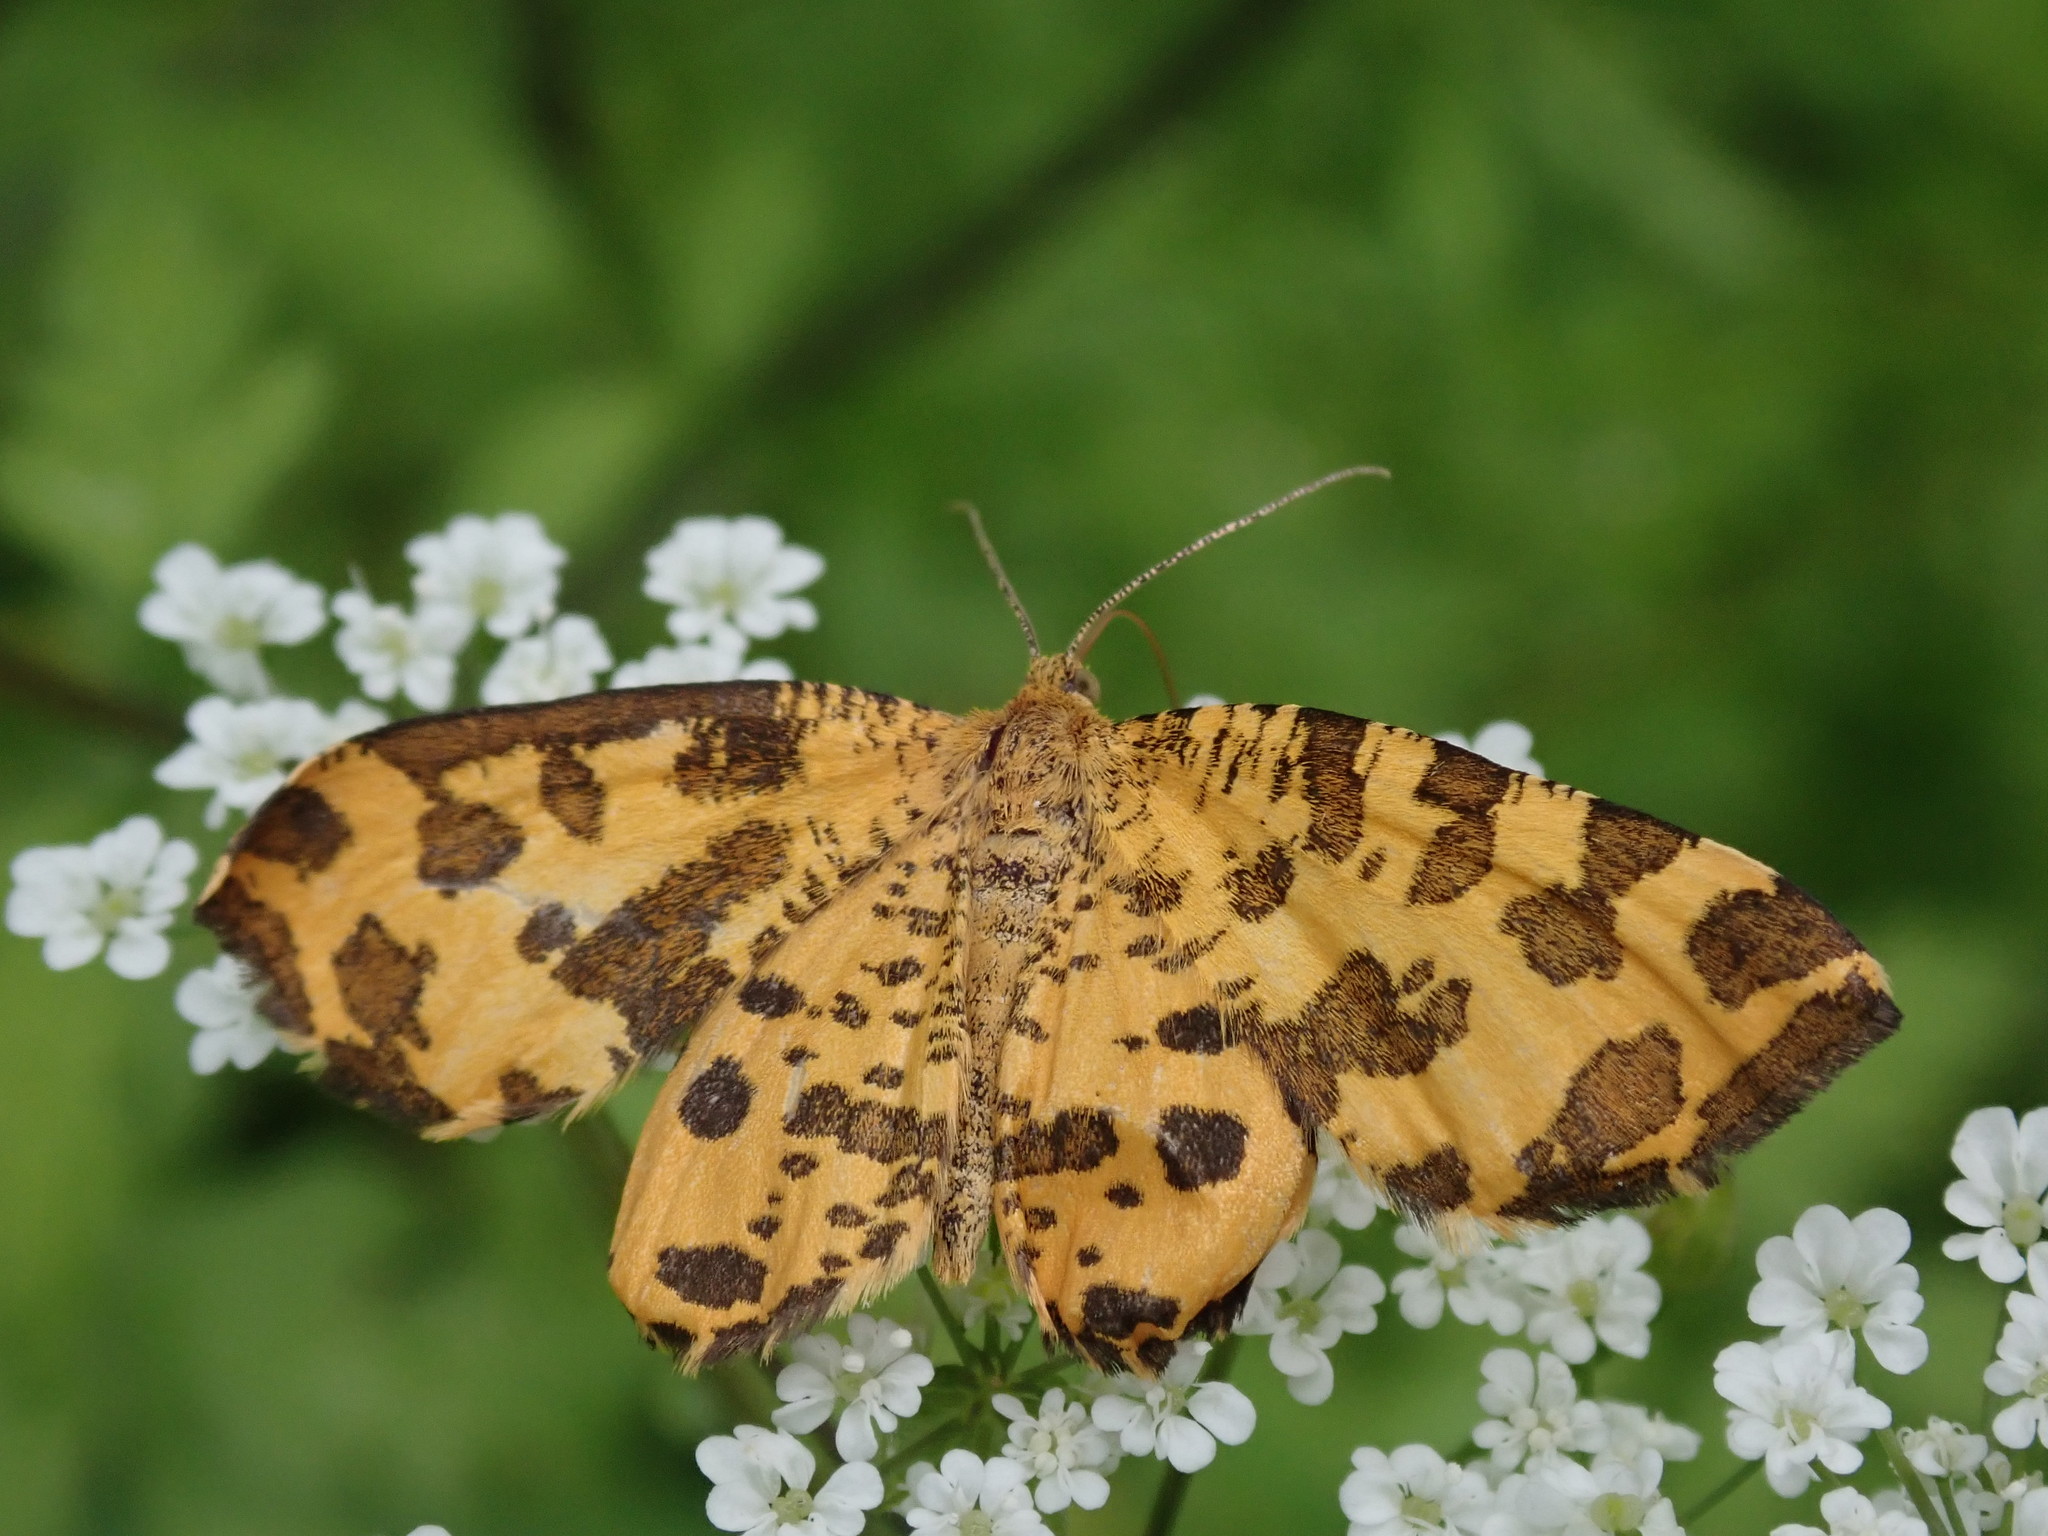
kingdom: Animalia
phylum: Arthropoda
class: Insecta
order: Lepidoptera
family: Geometridae
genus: Pseudopanthera
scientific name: Pseudopanthera macularia
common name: Speckled yellow
